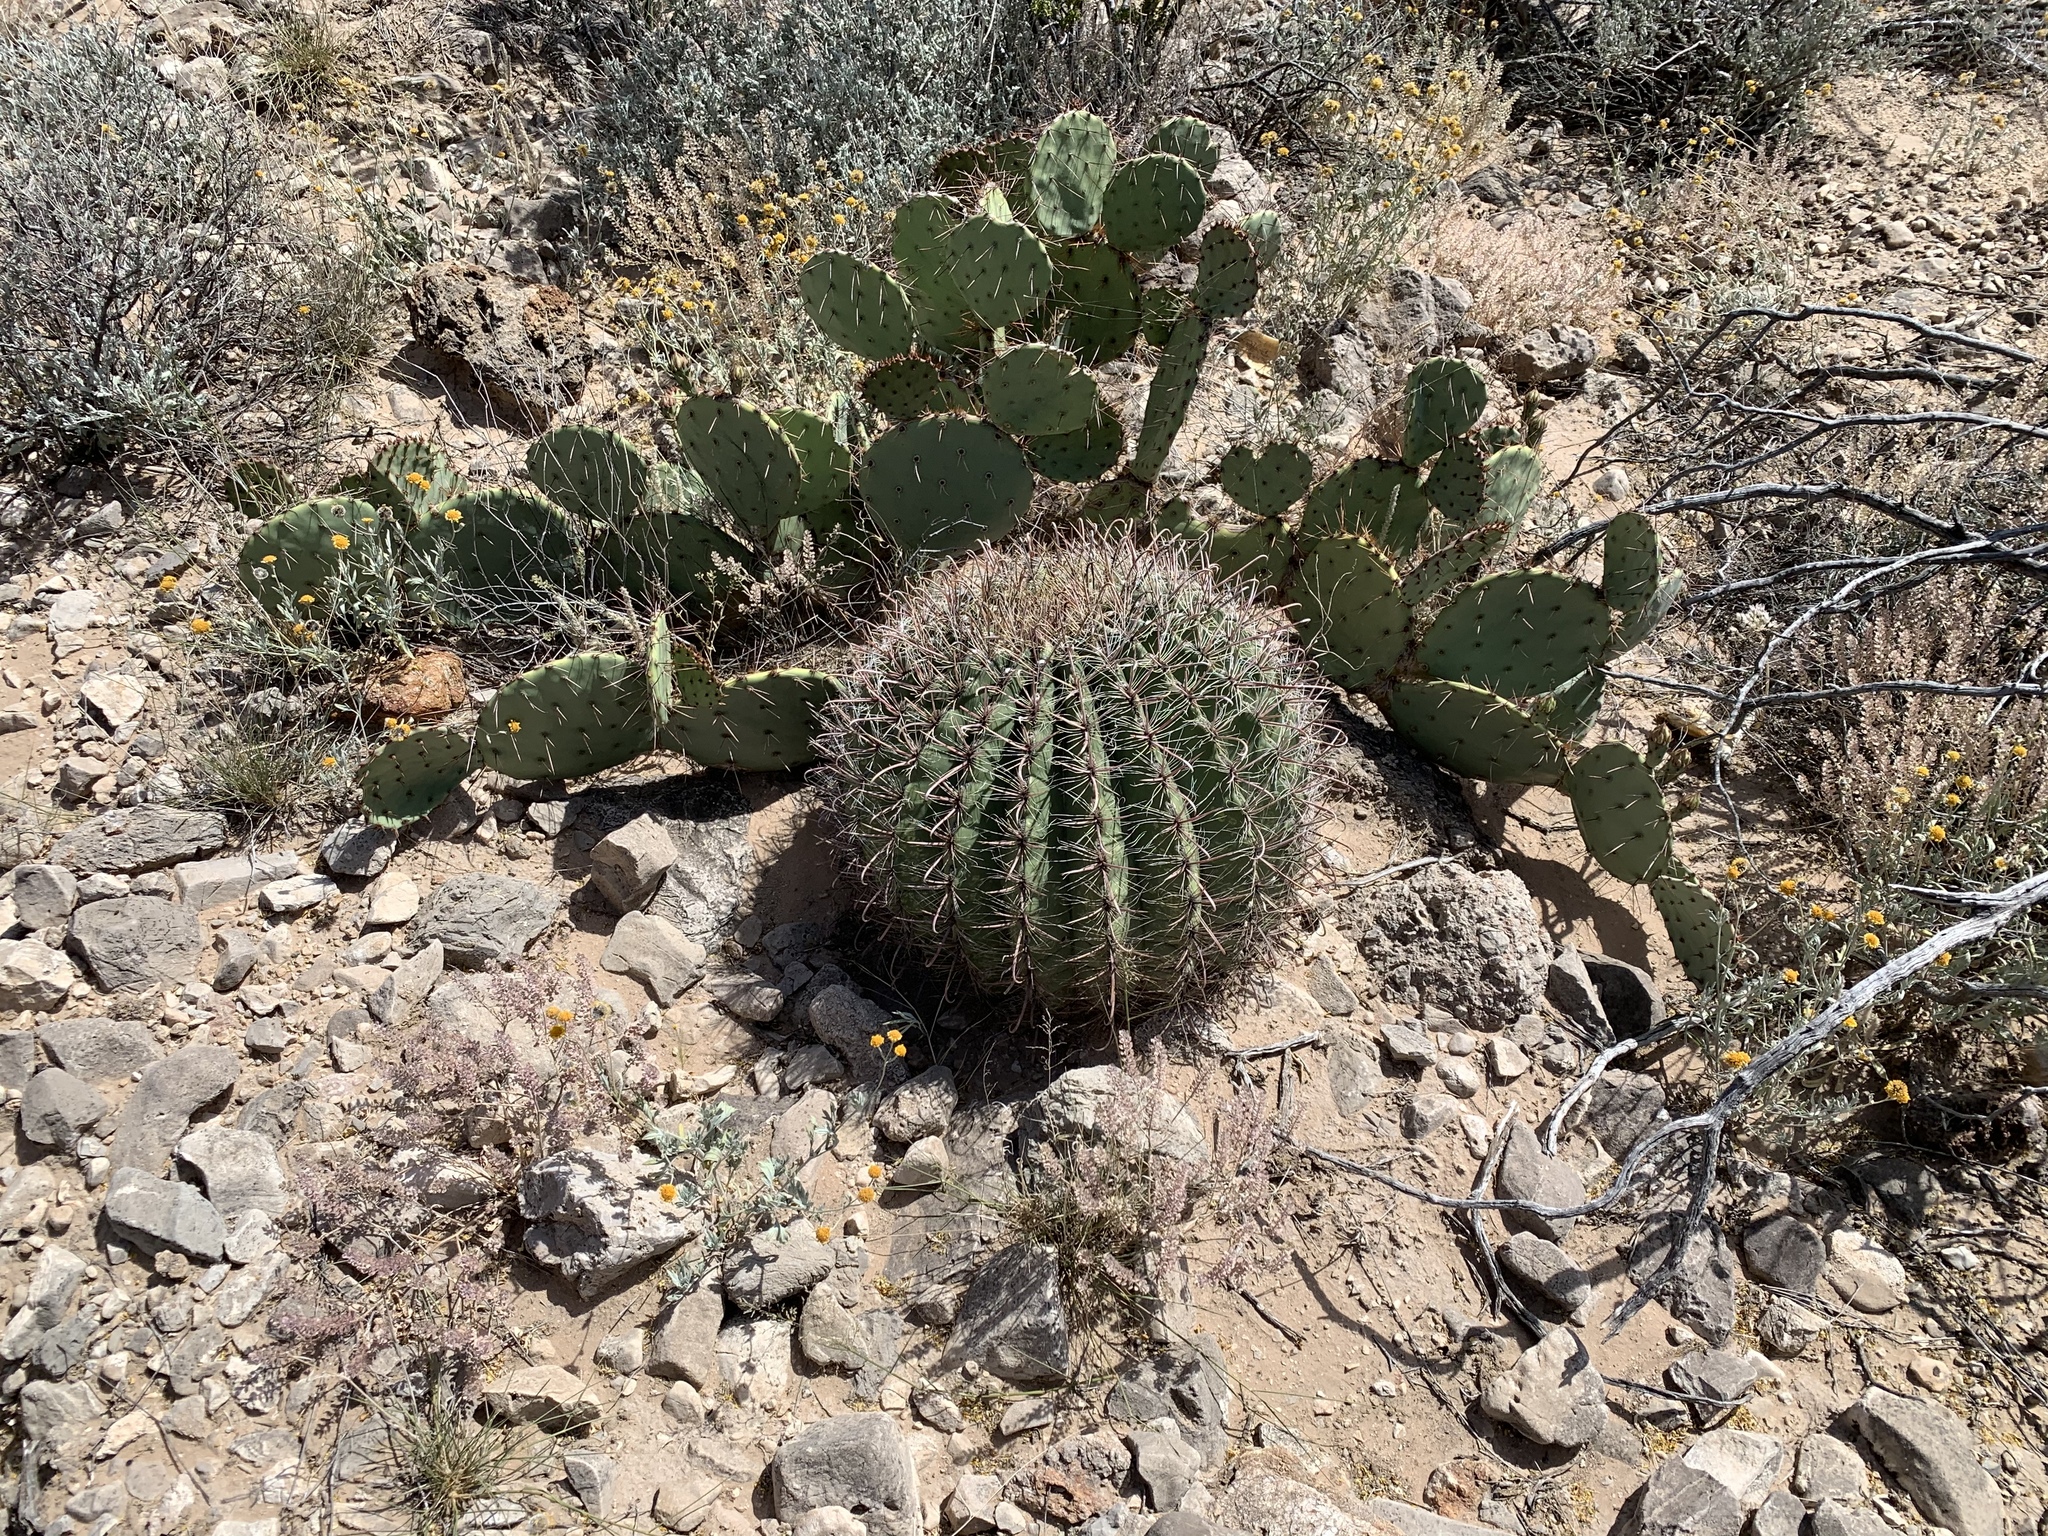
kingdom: Plantae
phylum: Tracheophyta
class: Magnoliopsida
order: Caryophyllales
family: Cactaceae
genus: Ferocactus
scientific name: Ferocactus wislizeni
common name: Candy barrel cactus
